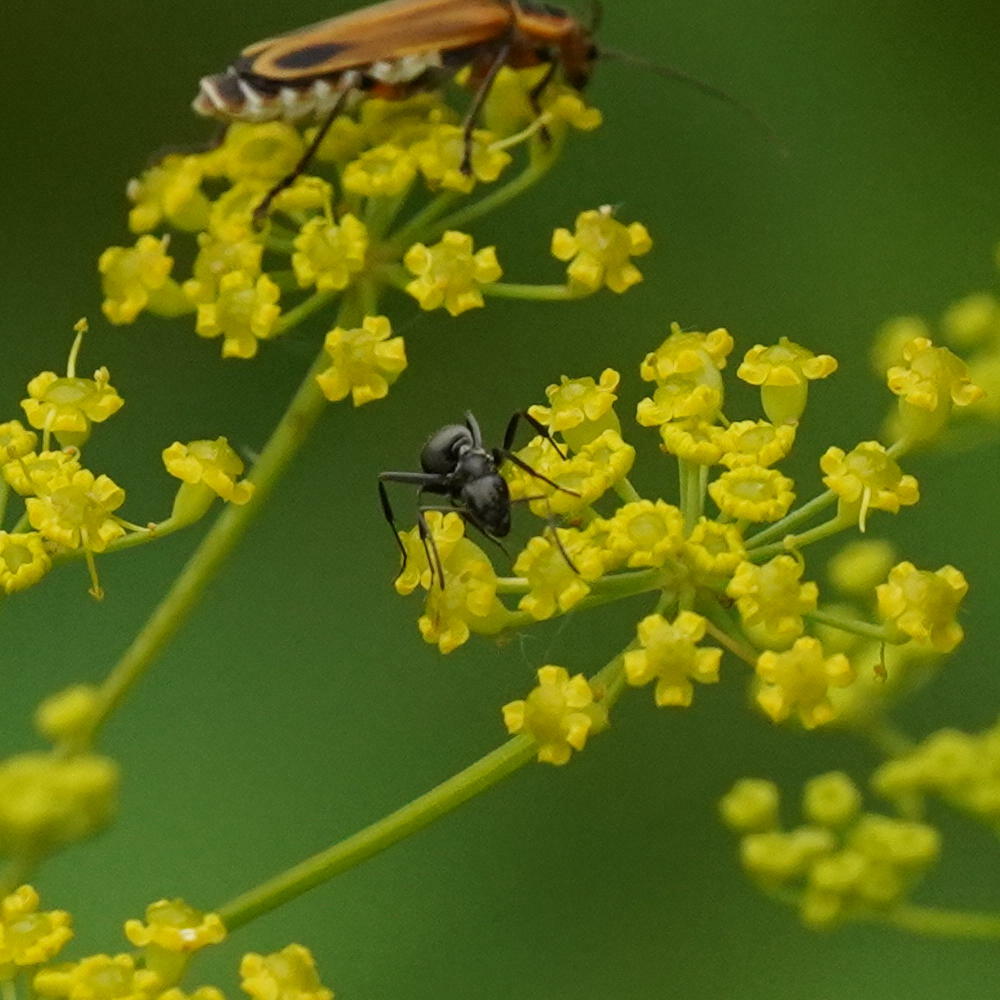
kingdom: Animalia
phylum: Arthropoda
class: Insecta
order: Hymenoptera
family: Formicidae
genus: Formica
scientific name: Formica subsericea
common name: Silky field ant
